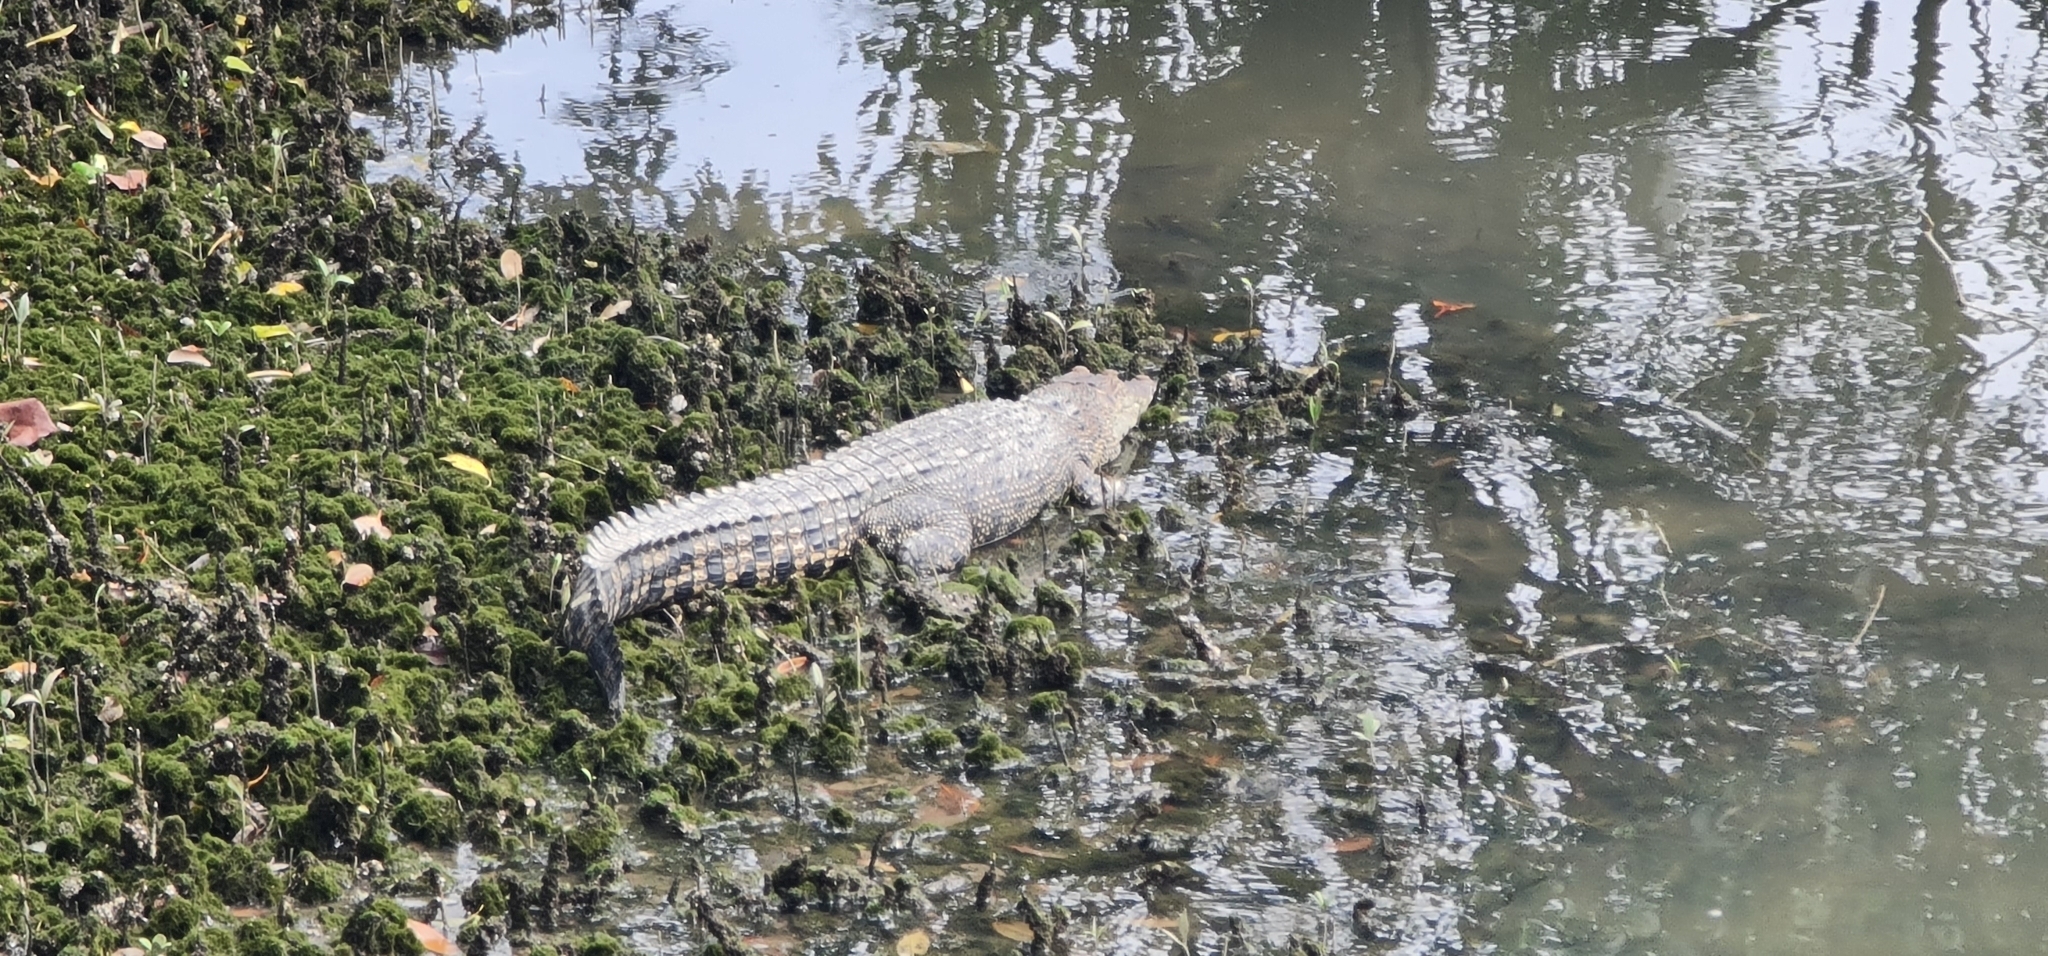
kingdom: Animalia
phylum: Chordata
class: Crocodylia
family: Crocodylidae
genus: Crocodylus
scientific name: Crocodylus porosus
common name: Saltwater crocodile
